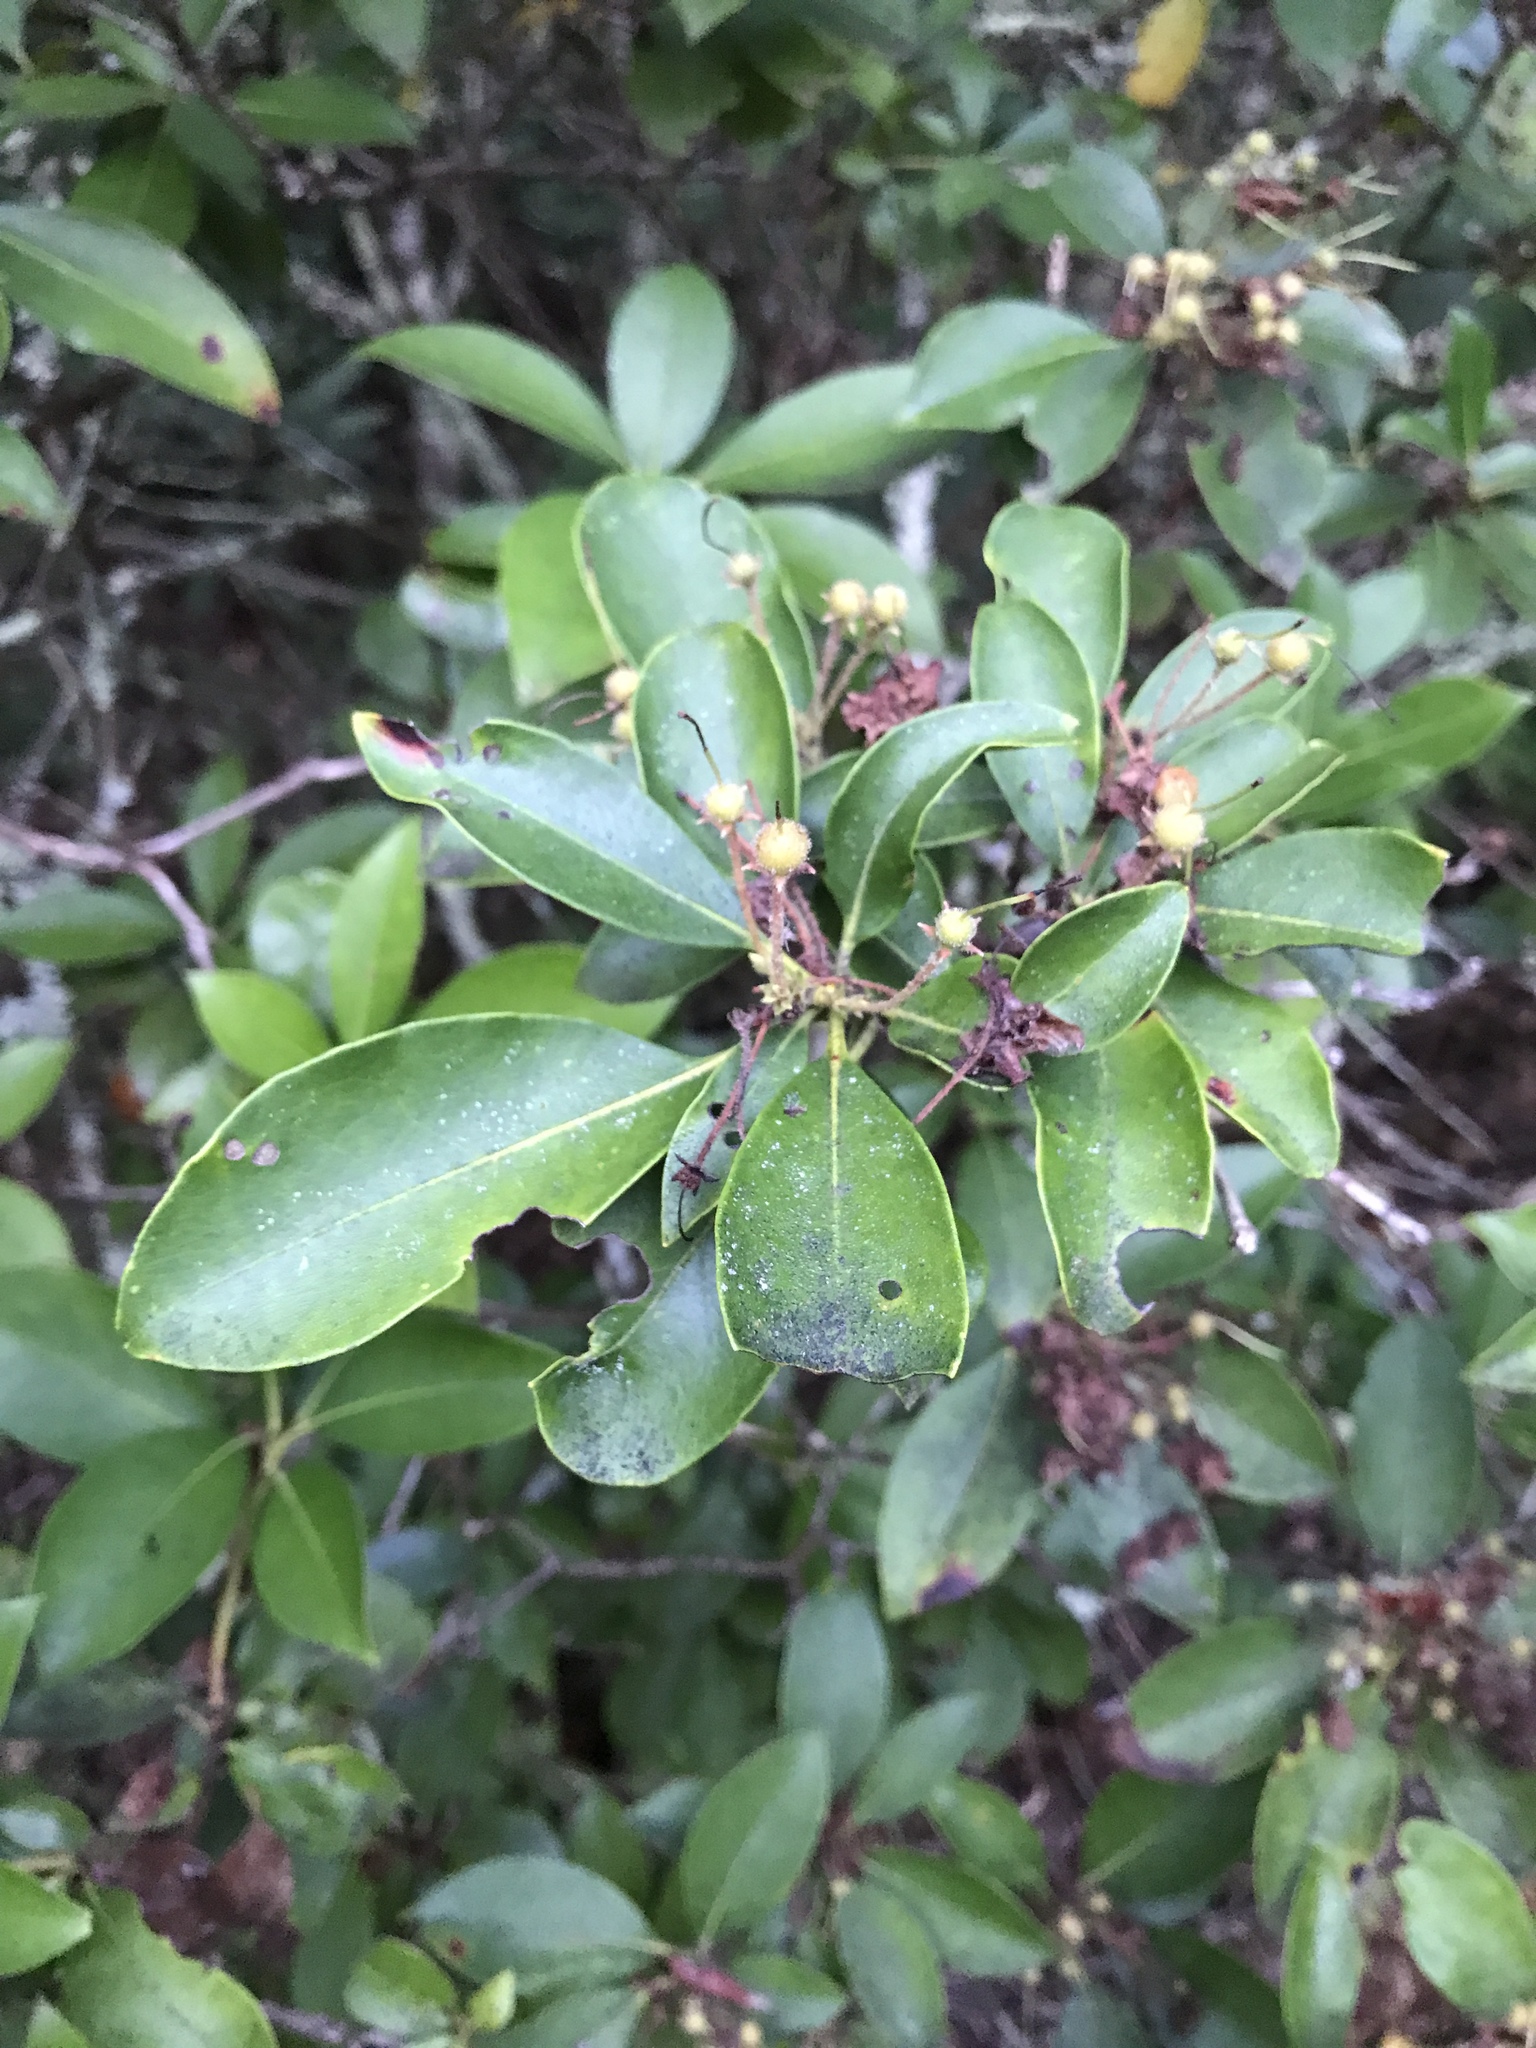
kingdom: Plantae
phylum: Tracheophyta
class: Magnoliopsida
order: Ericales
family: Ericaceae
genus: Kalmia
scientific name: Kalmia latifolia
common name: Mountain-laurel
